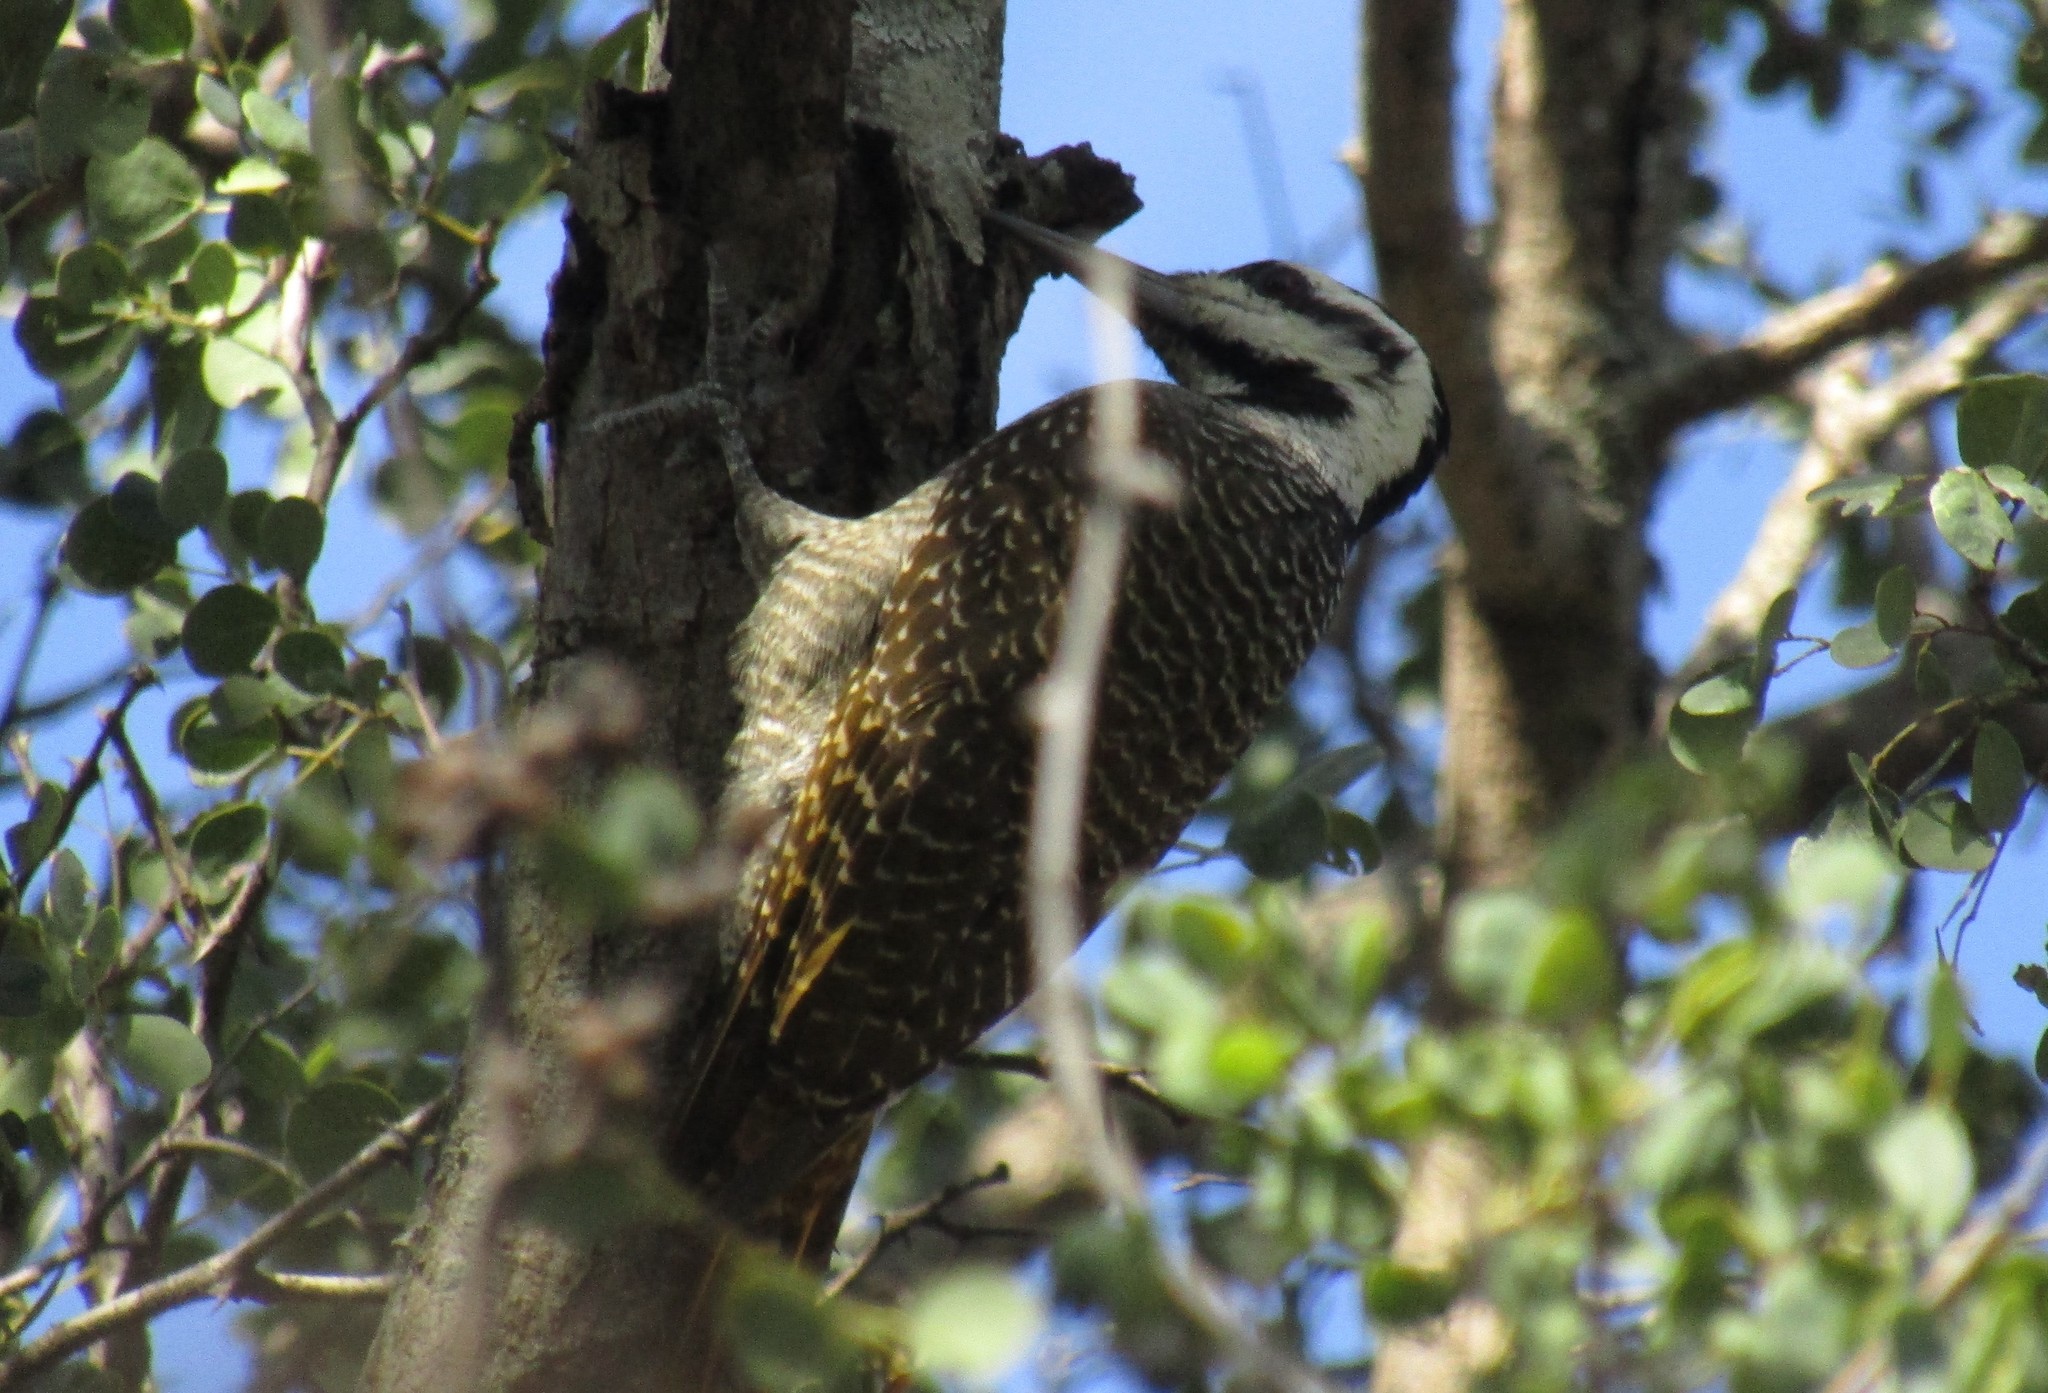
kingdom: Animalia
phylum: Chordata
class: Aves
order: Piciformes
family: Picidae
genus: Chloropicus
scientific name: Chloropicus namaquus
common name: Bearded woodpecker
